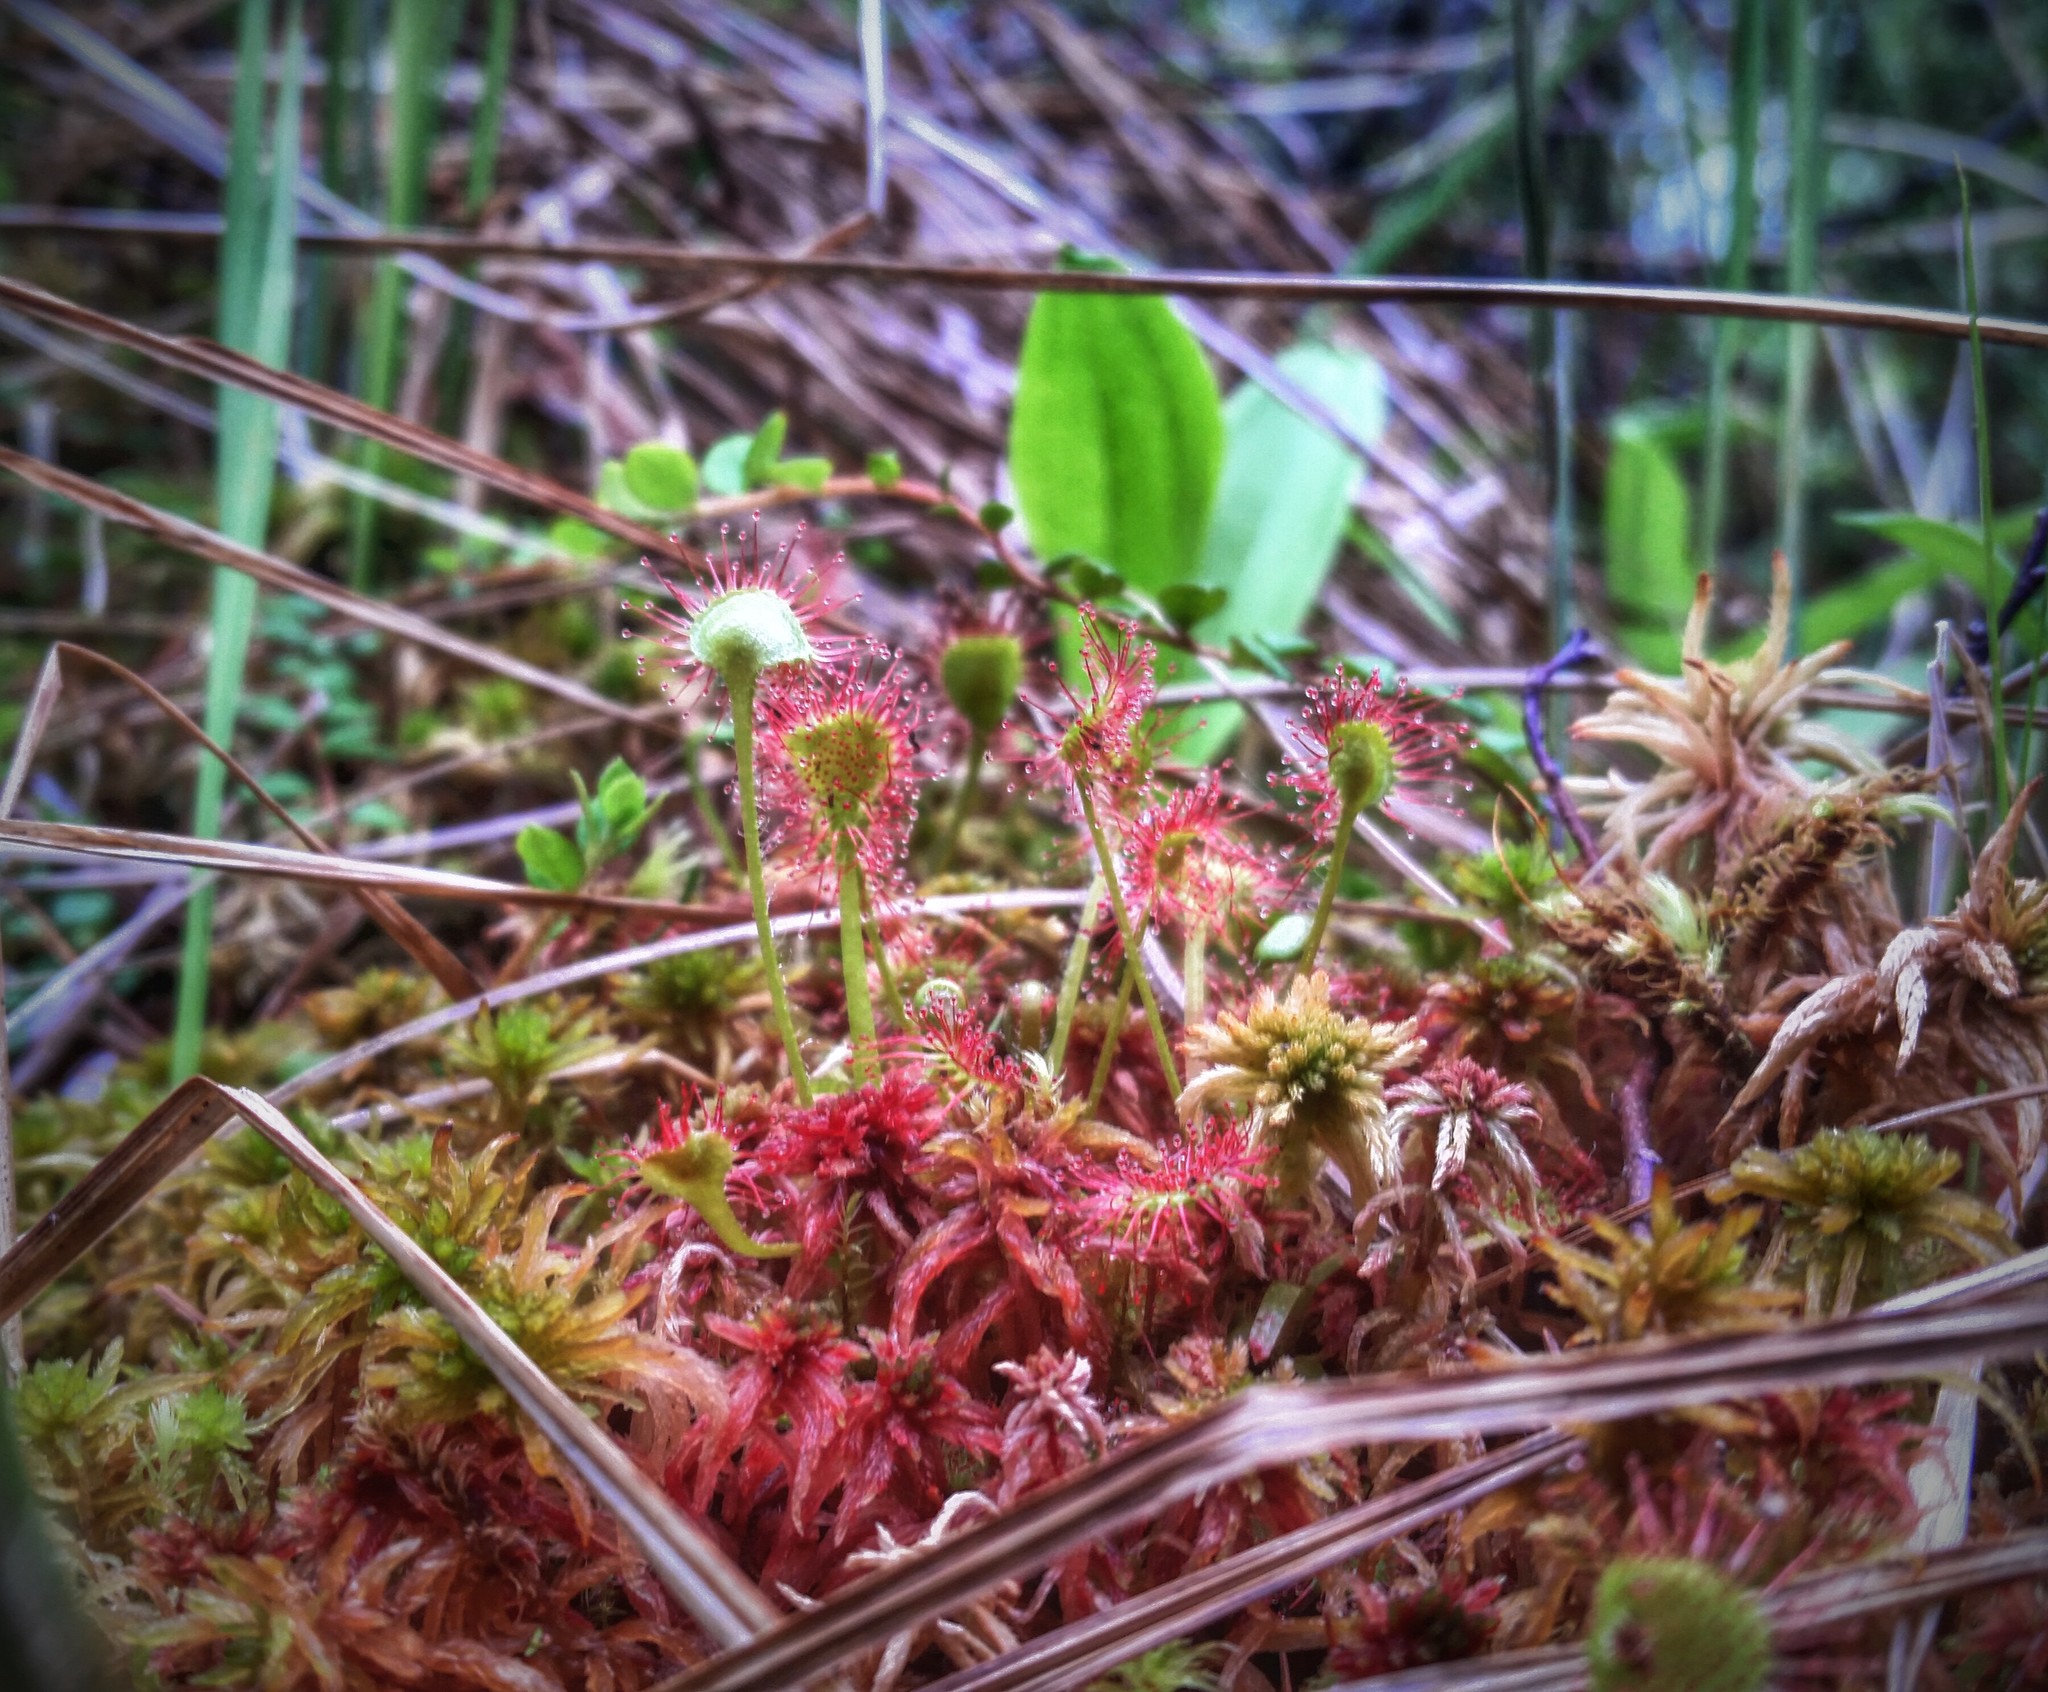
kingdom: Plantae
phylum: Tracheophyta
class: Magnoliopsida
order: Caryophyllales
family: Droseraceae
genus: Drosera
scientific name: Drosera rotundifolia
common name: Round-leaved sundew
